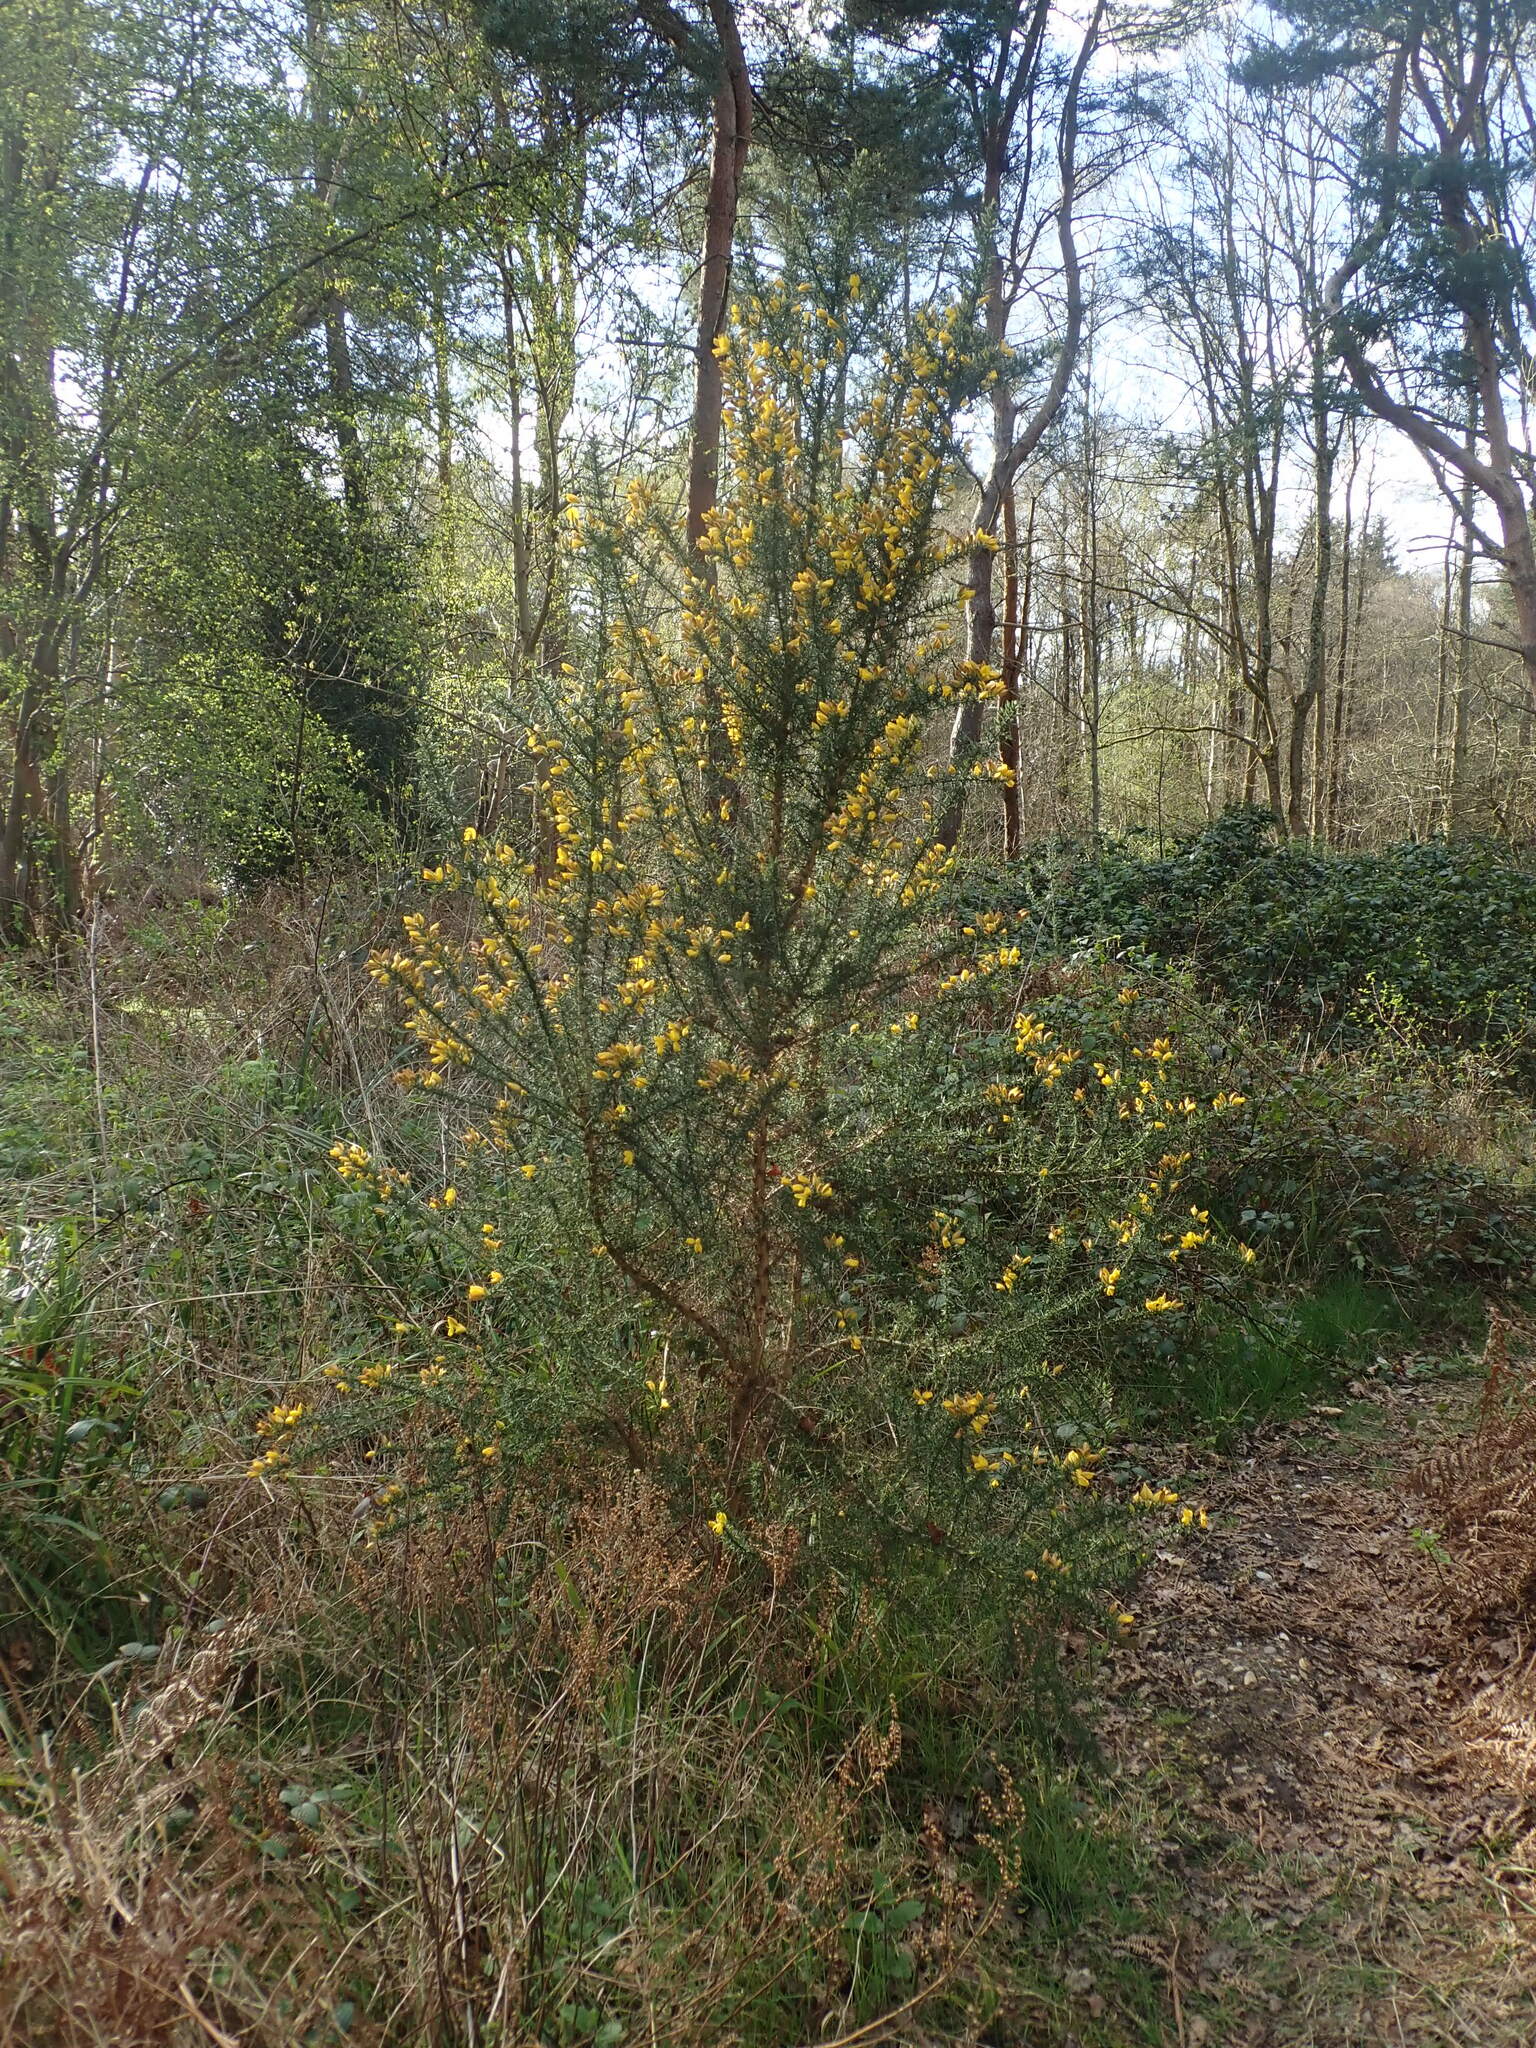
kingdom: Plantae
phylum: Tracheophyta
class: Magnoliopsida
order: Fabales
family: Fabaceae
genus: Ulex
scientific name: Ulex europaeus
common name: Common gorse
